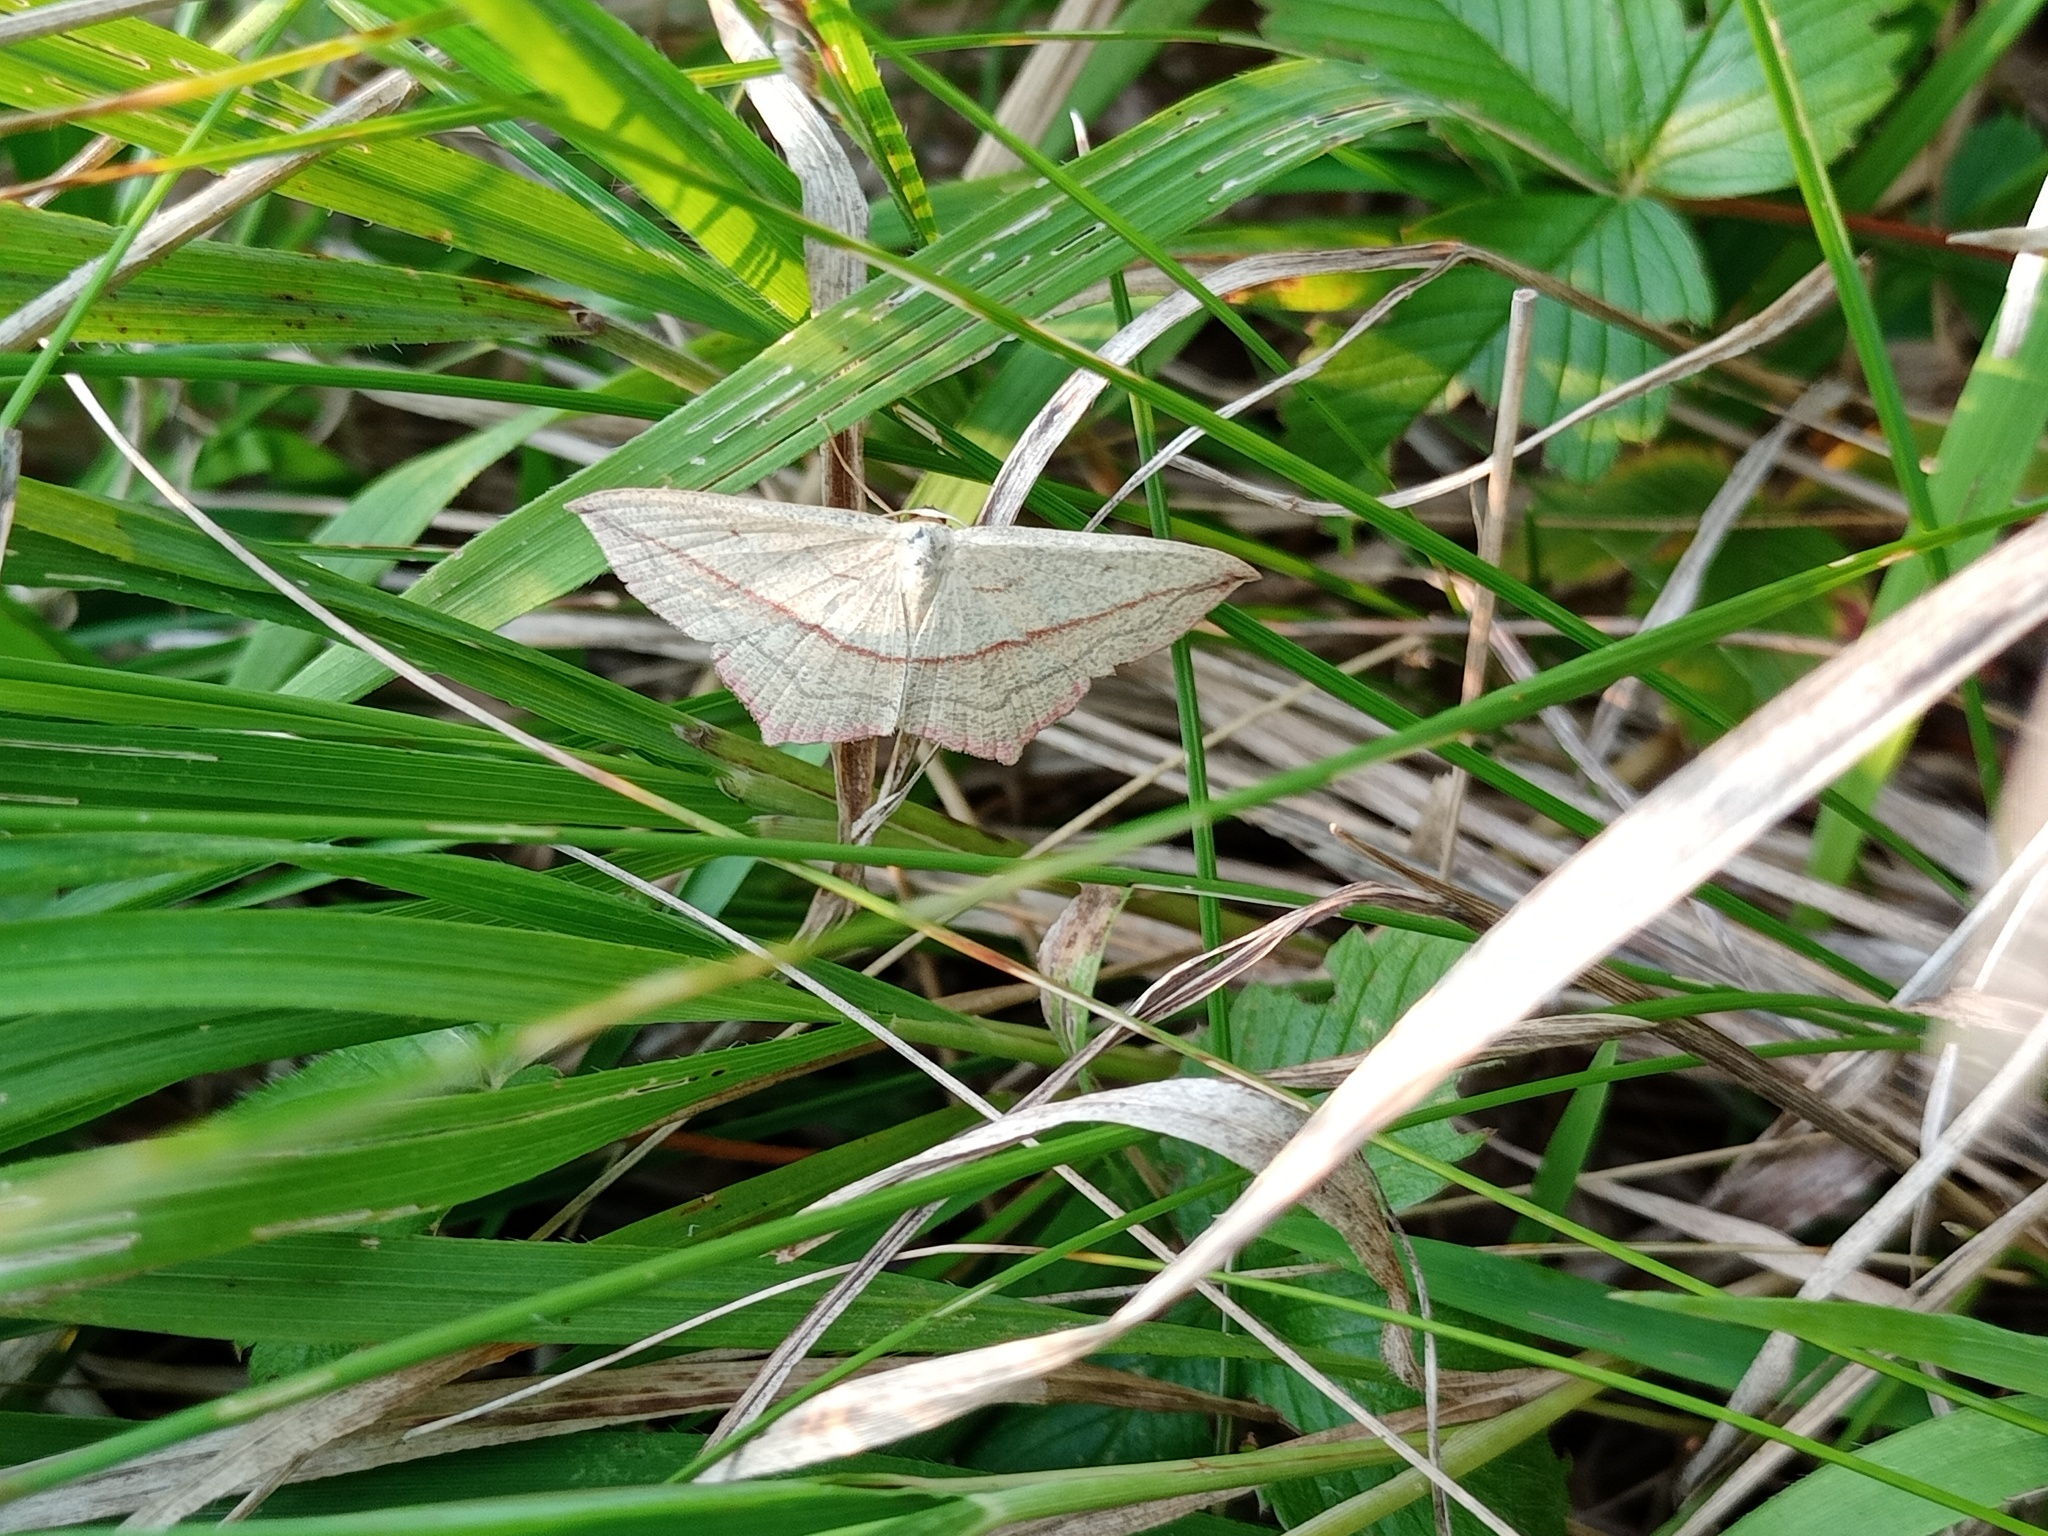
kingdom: Animalia
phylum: Arthropoda
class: Insecta
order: Lepidoptera
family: Geometridae
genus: Timandra
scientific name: Timandra comae
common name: Blood-vein
